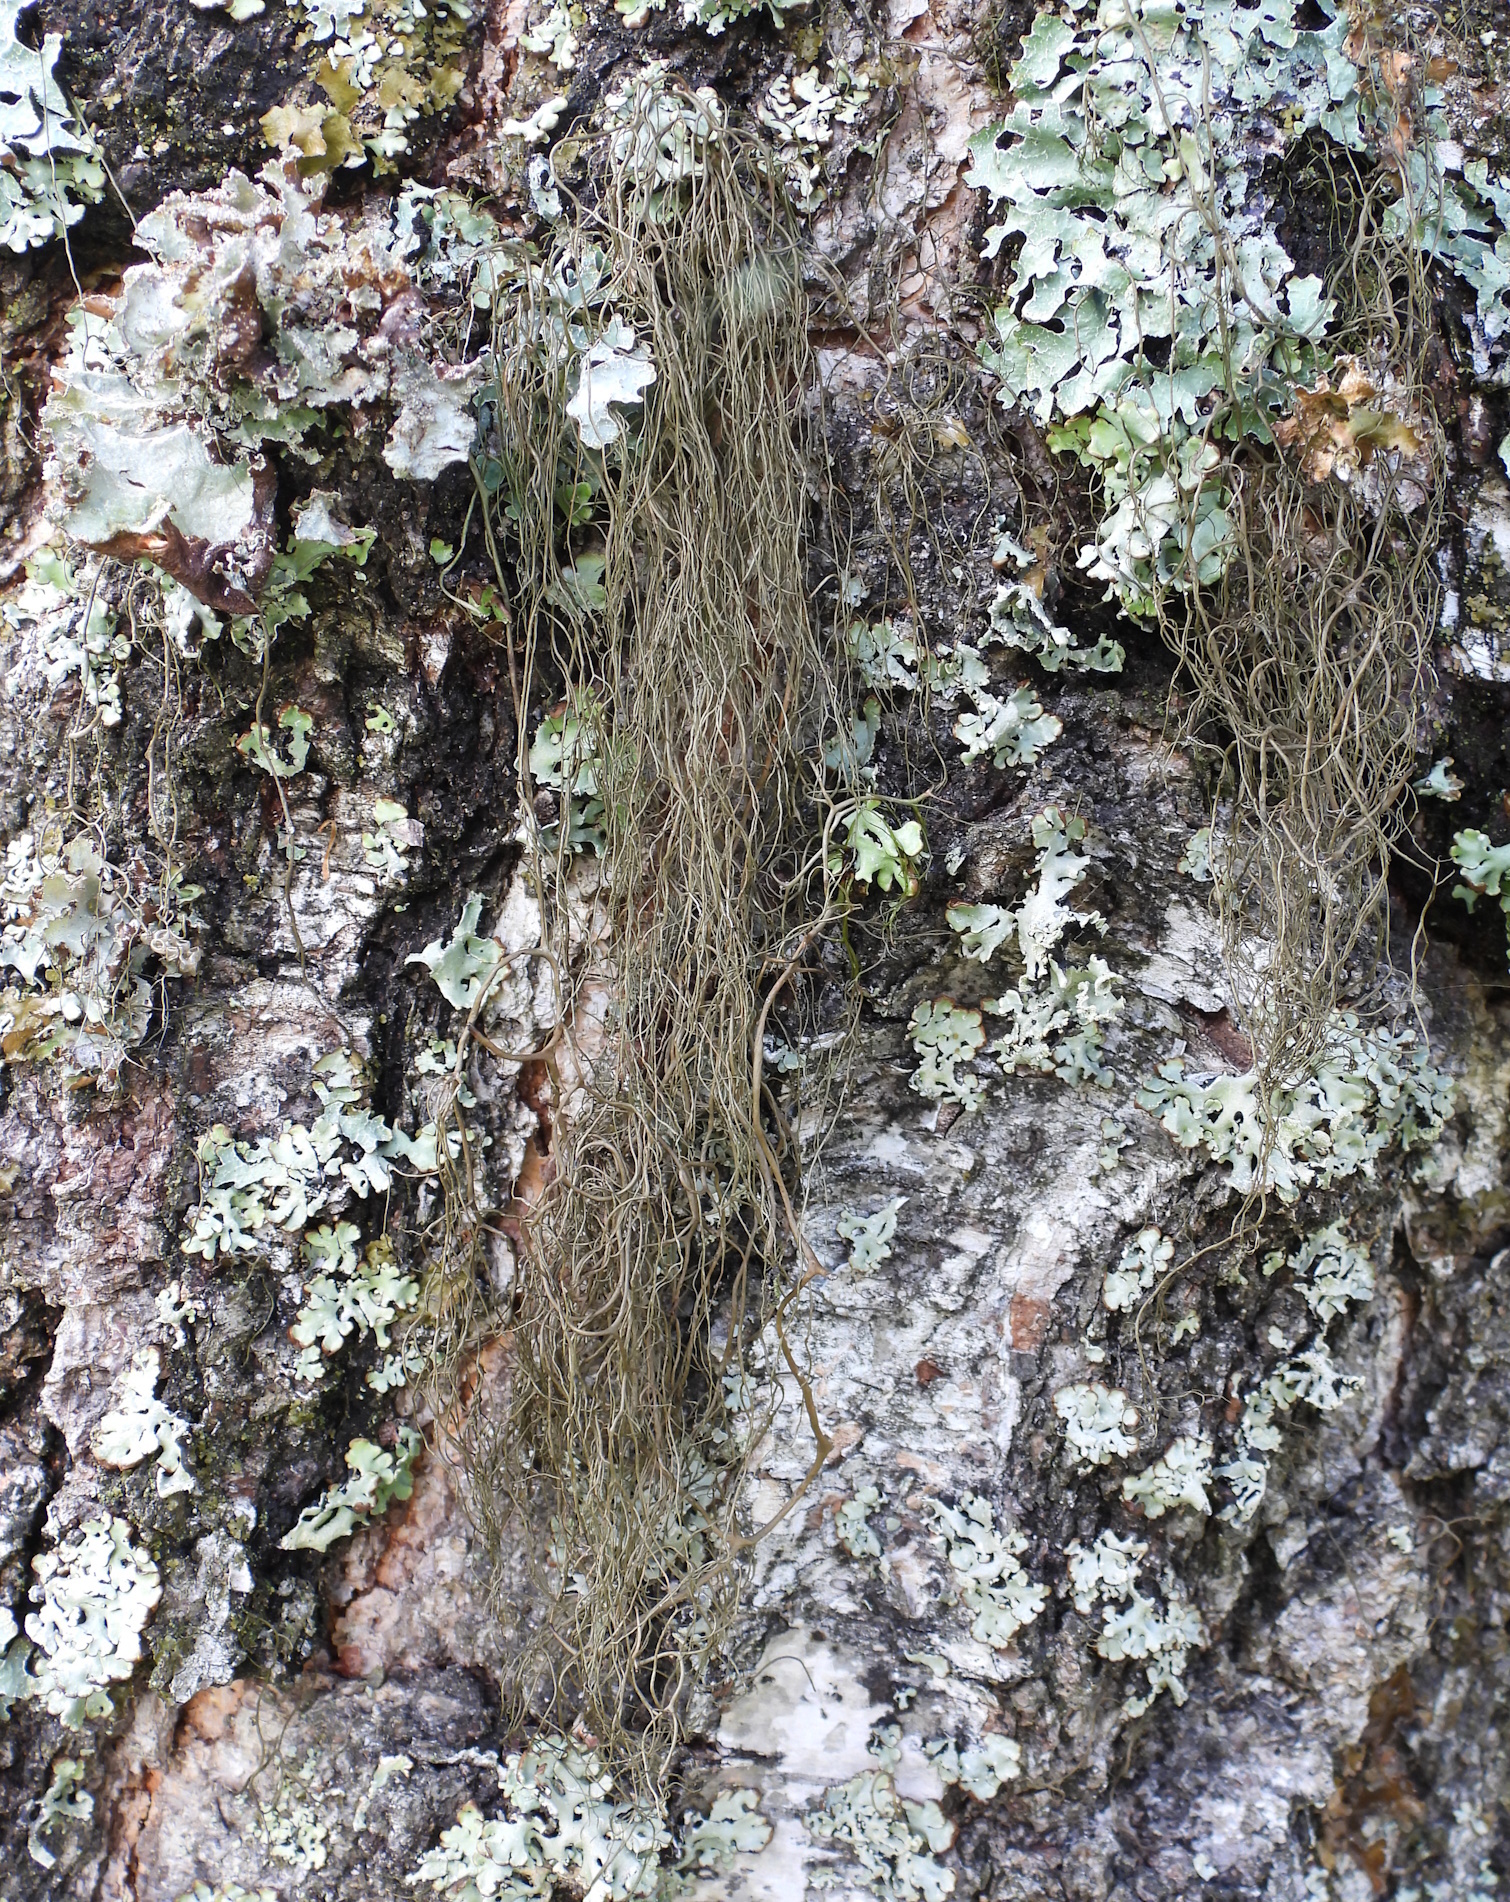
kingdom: Fungi
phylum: Ascomycota
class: Lecanoromycetes
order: Lecanorales
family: Parmeliaceae
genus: Bryoria
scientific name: Bryoria fuscescens
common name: Pale-footed horsehair lichen
